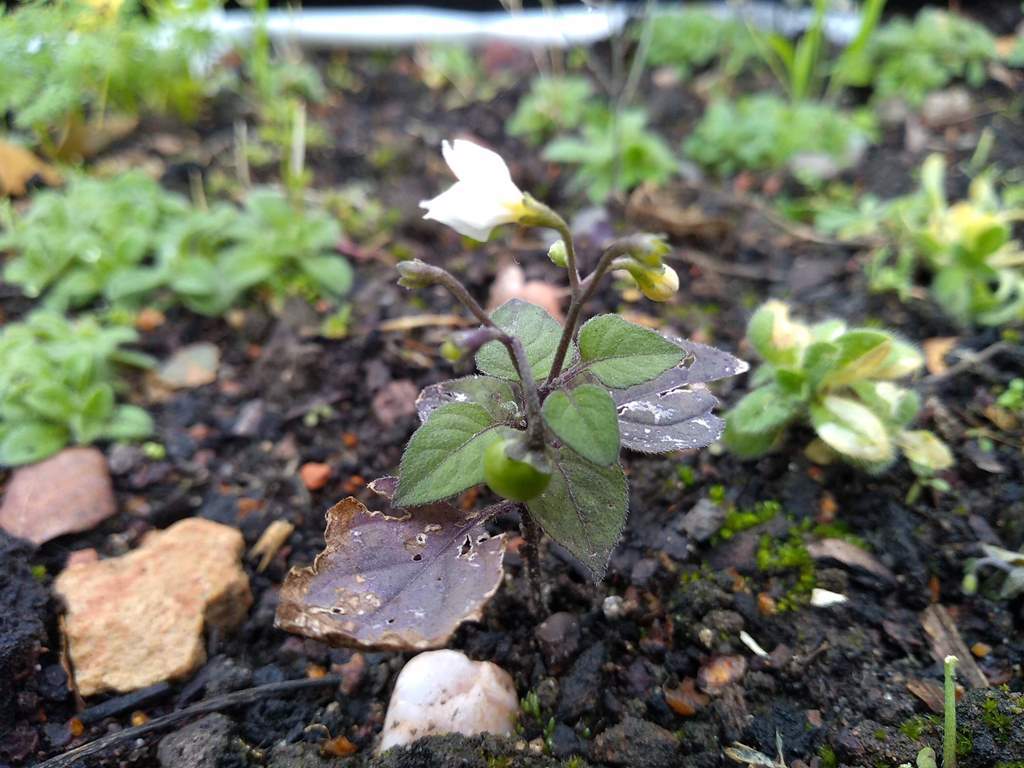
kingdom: Plantae
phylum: Tracheophyta
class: Magnoliopsida
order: Solanales
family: Solanaceae
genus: Solanum
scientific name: Solanum nigrum
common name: Black nightshade
